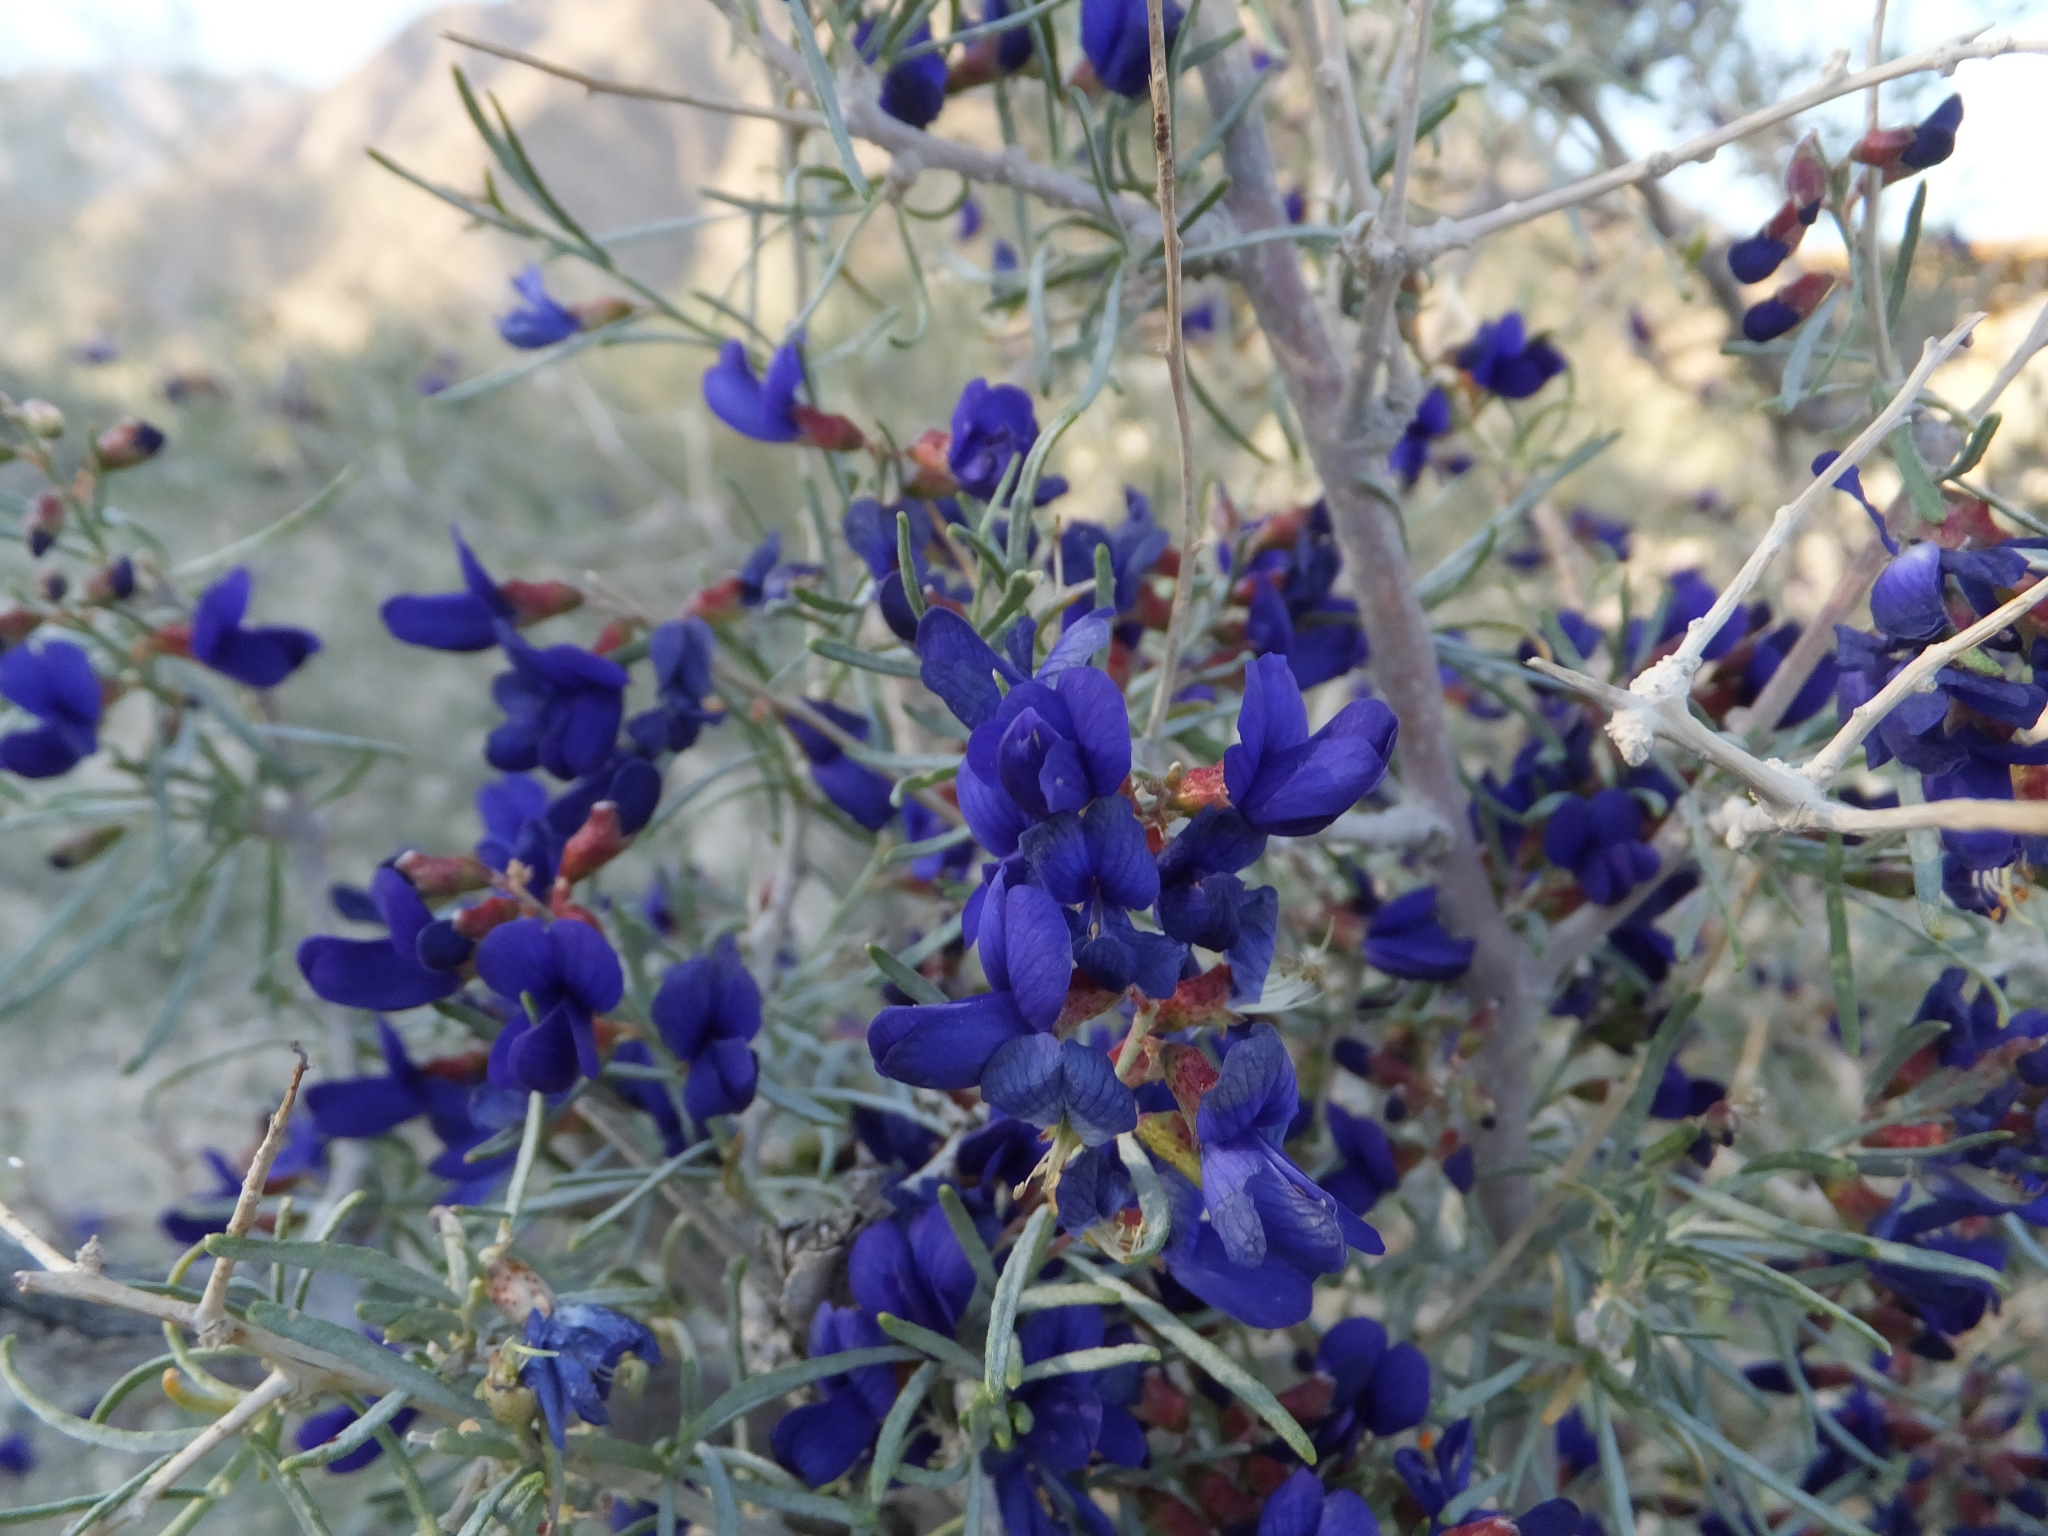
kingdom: Plantae
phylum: Tracheophyta
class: Magnoliopsida
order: Fabales
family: Fabaceae
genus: Psorothamnus
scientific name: Psorothamnus schottii
